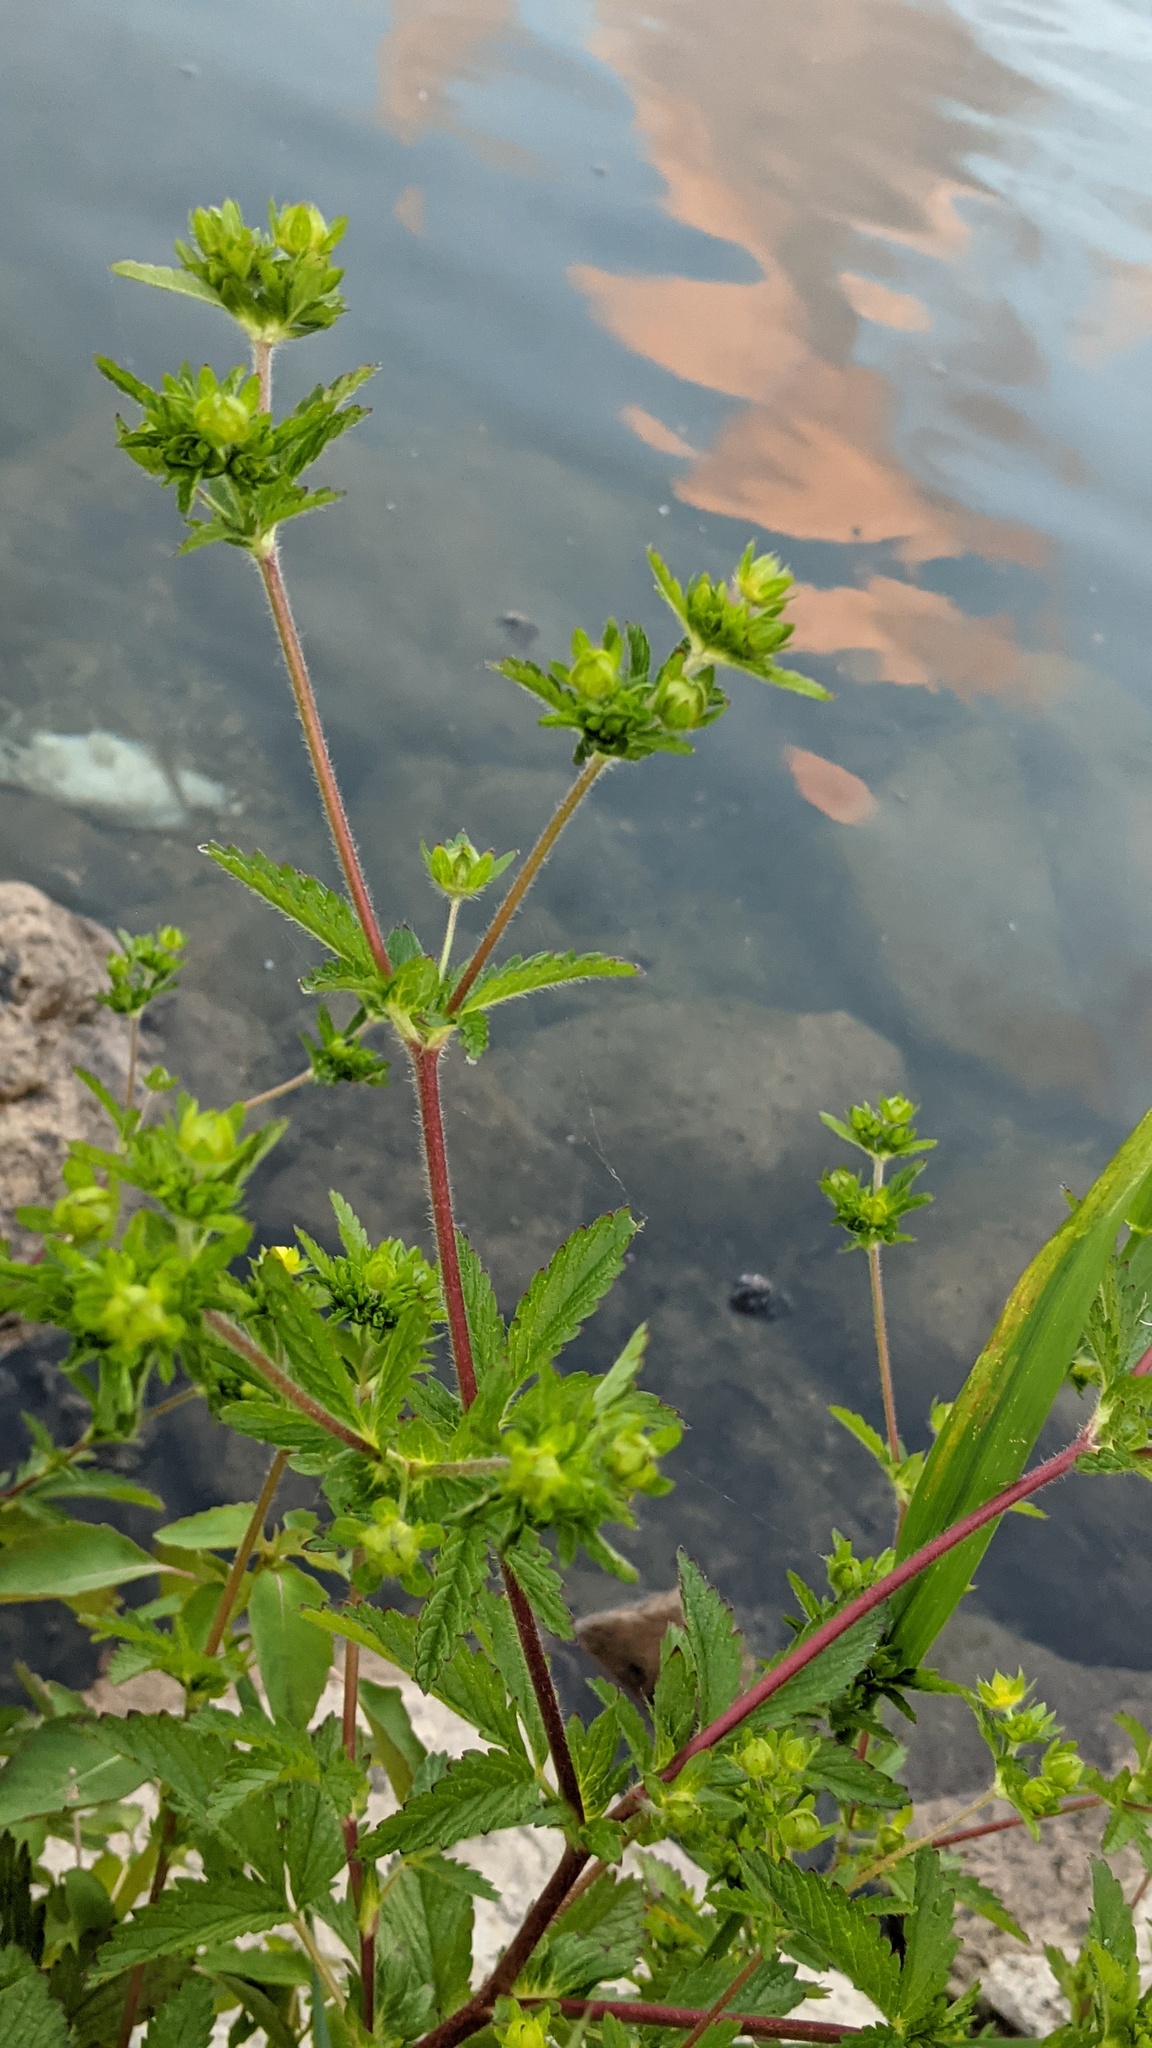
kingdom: Plantae
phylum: Tracheophyta
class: Magnoliopsida
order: Rosales
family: Rosaceae
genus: Potentilla
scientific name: Potentilla norvegica
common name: Ternate-leaved cinquefoil
